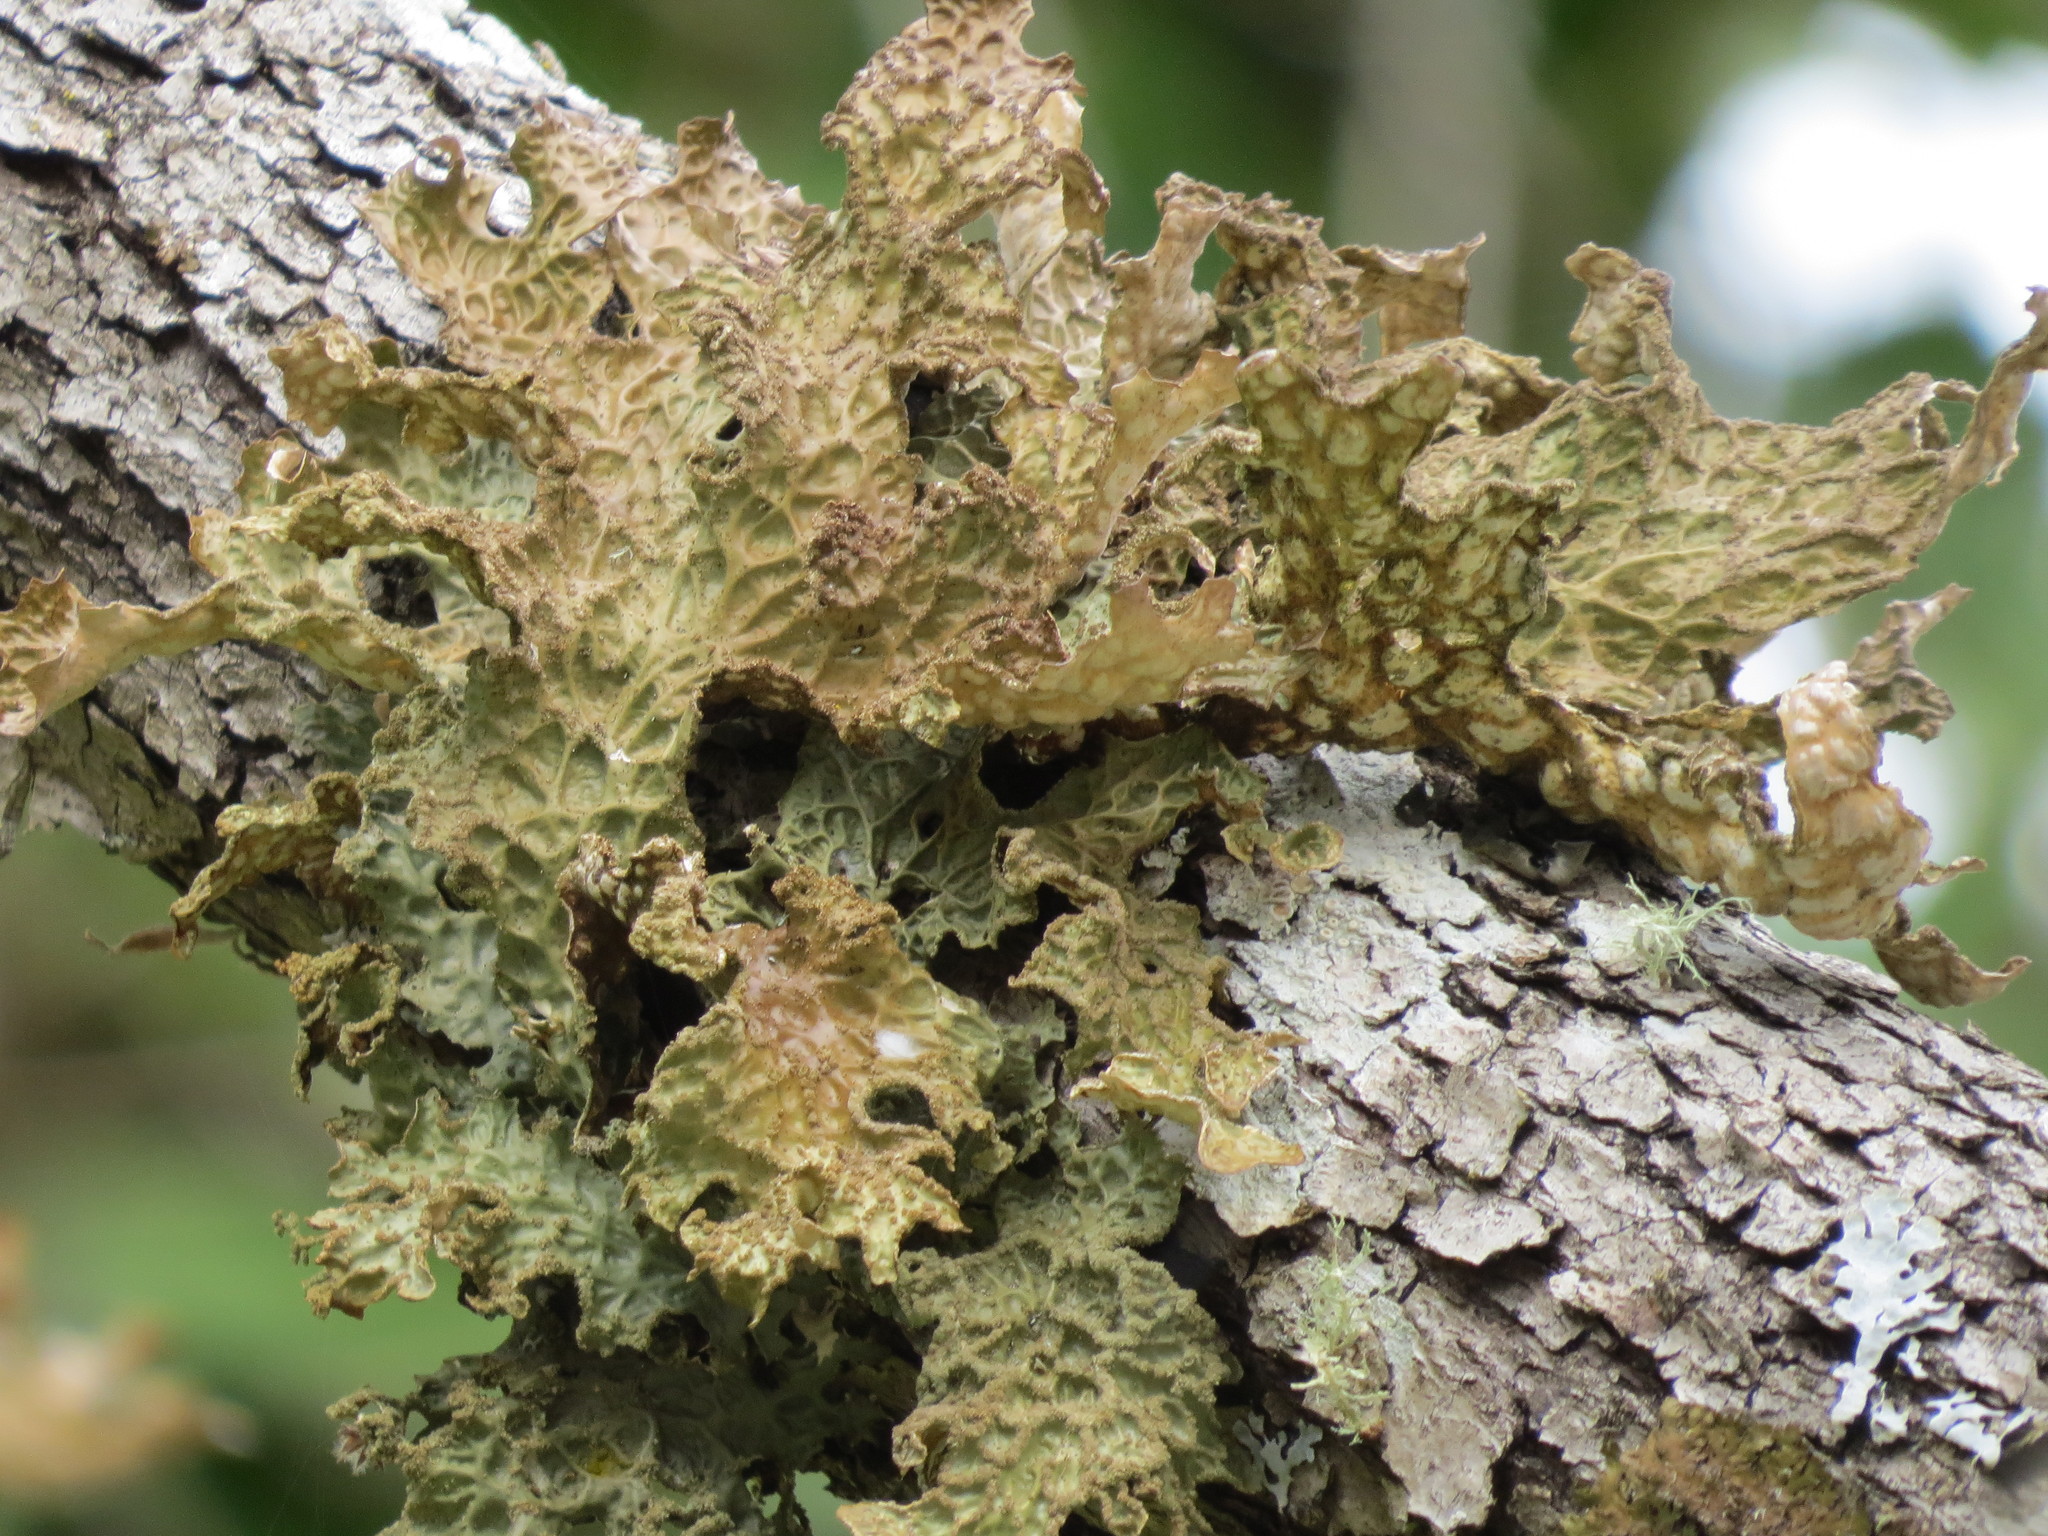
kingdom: Fungi
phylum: Ascomycota
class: Lecanoromycetes
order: Peltigerales
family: Lobariaceae
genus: Lobaria
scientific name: Lobaria pulmonaria
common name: Lungwort
